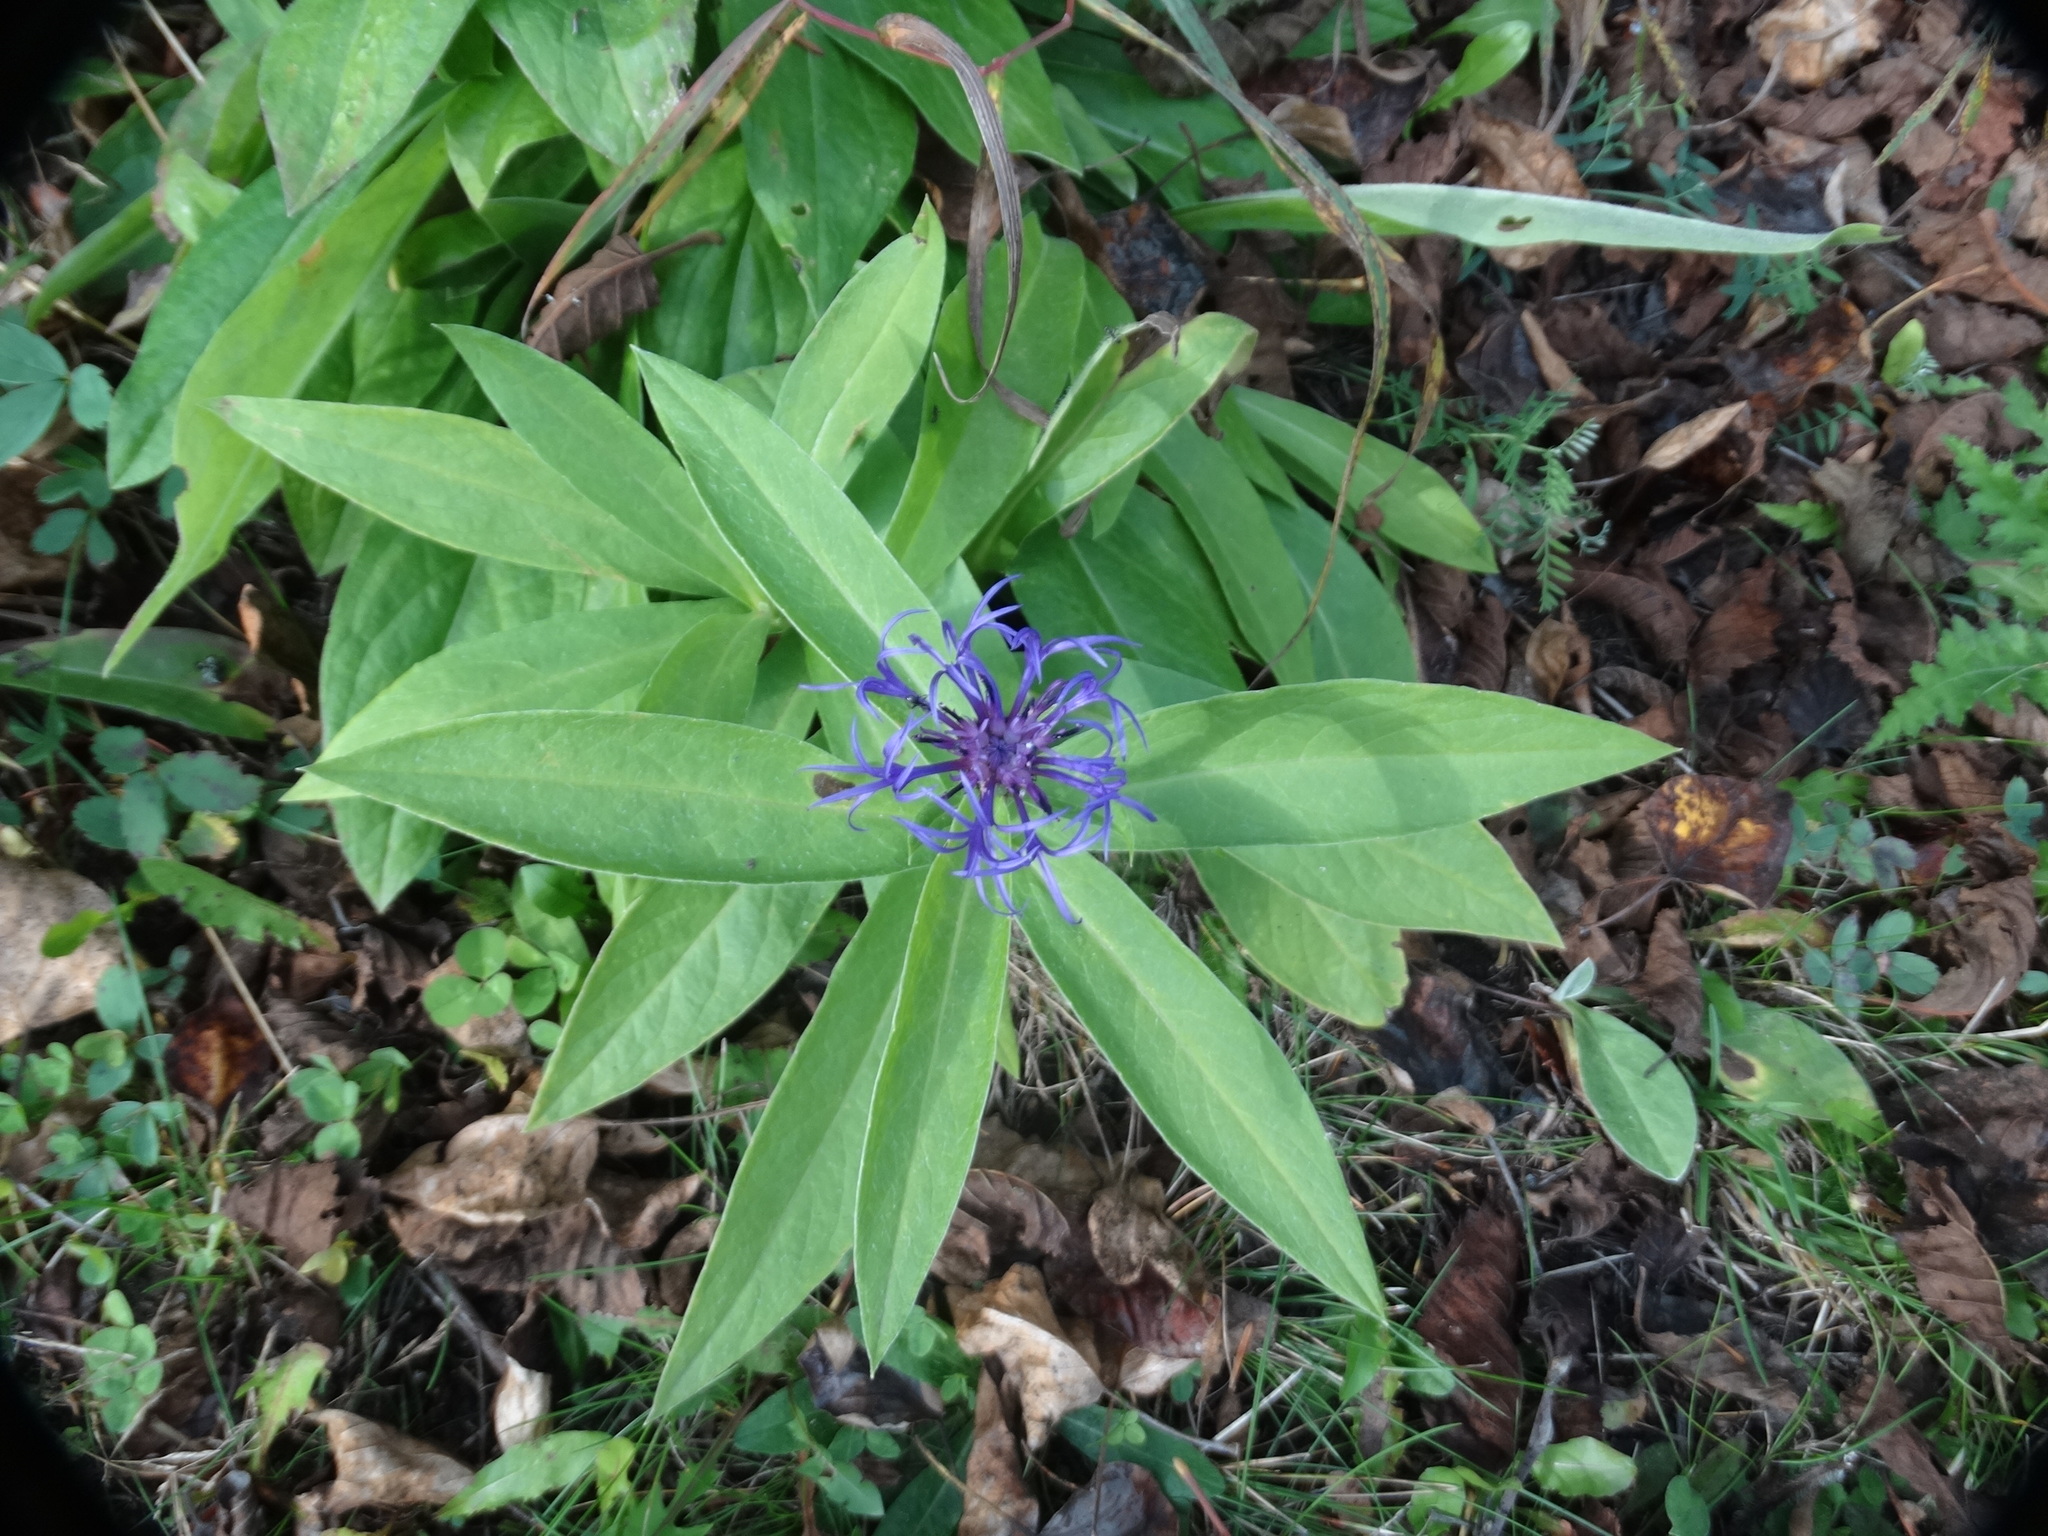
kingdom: Plantae
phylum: Tracheophyta
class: Magnoliopsida
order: Asterales
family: Asteraceae
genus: Centaurea
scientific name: Centaurea montana
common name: Perennial cornflower
